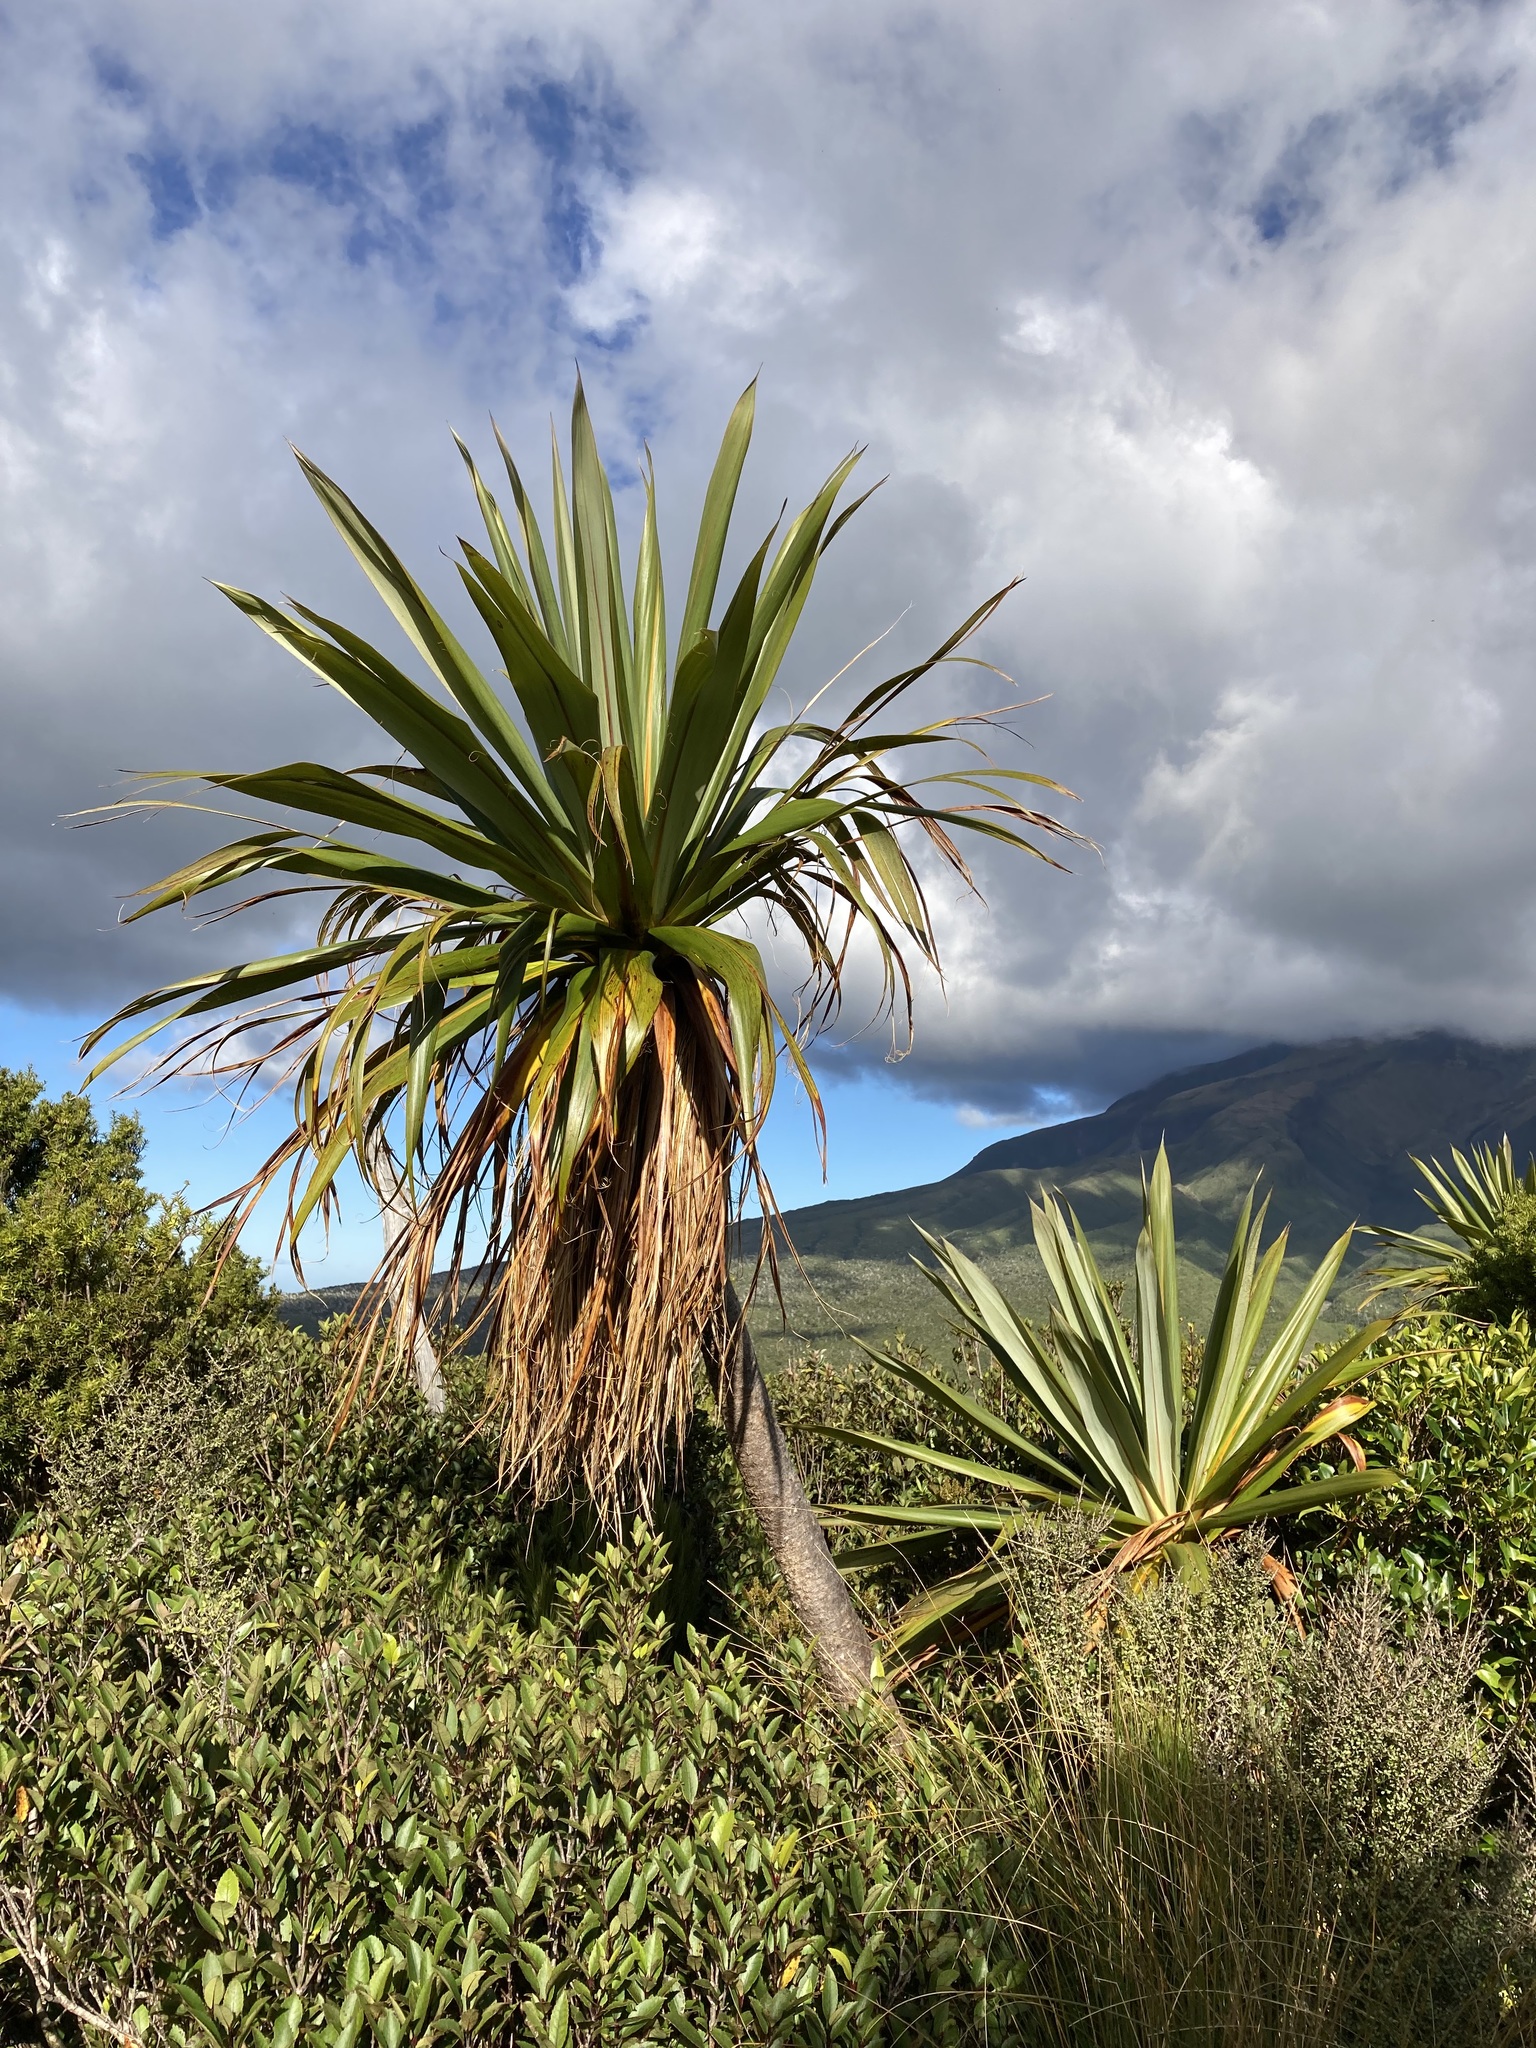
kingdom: Plantae
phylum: Tracheophyta
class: Liliopsida
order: Asparagales
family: Asparagaceae
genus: Cordyline
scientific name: Cordyline indivisa
